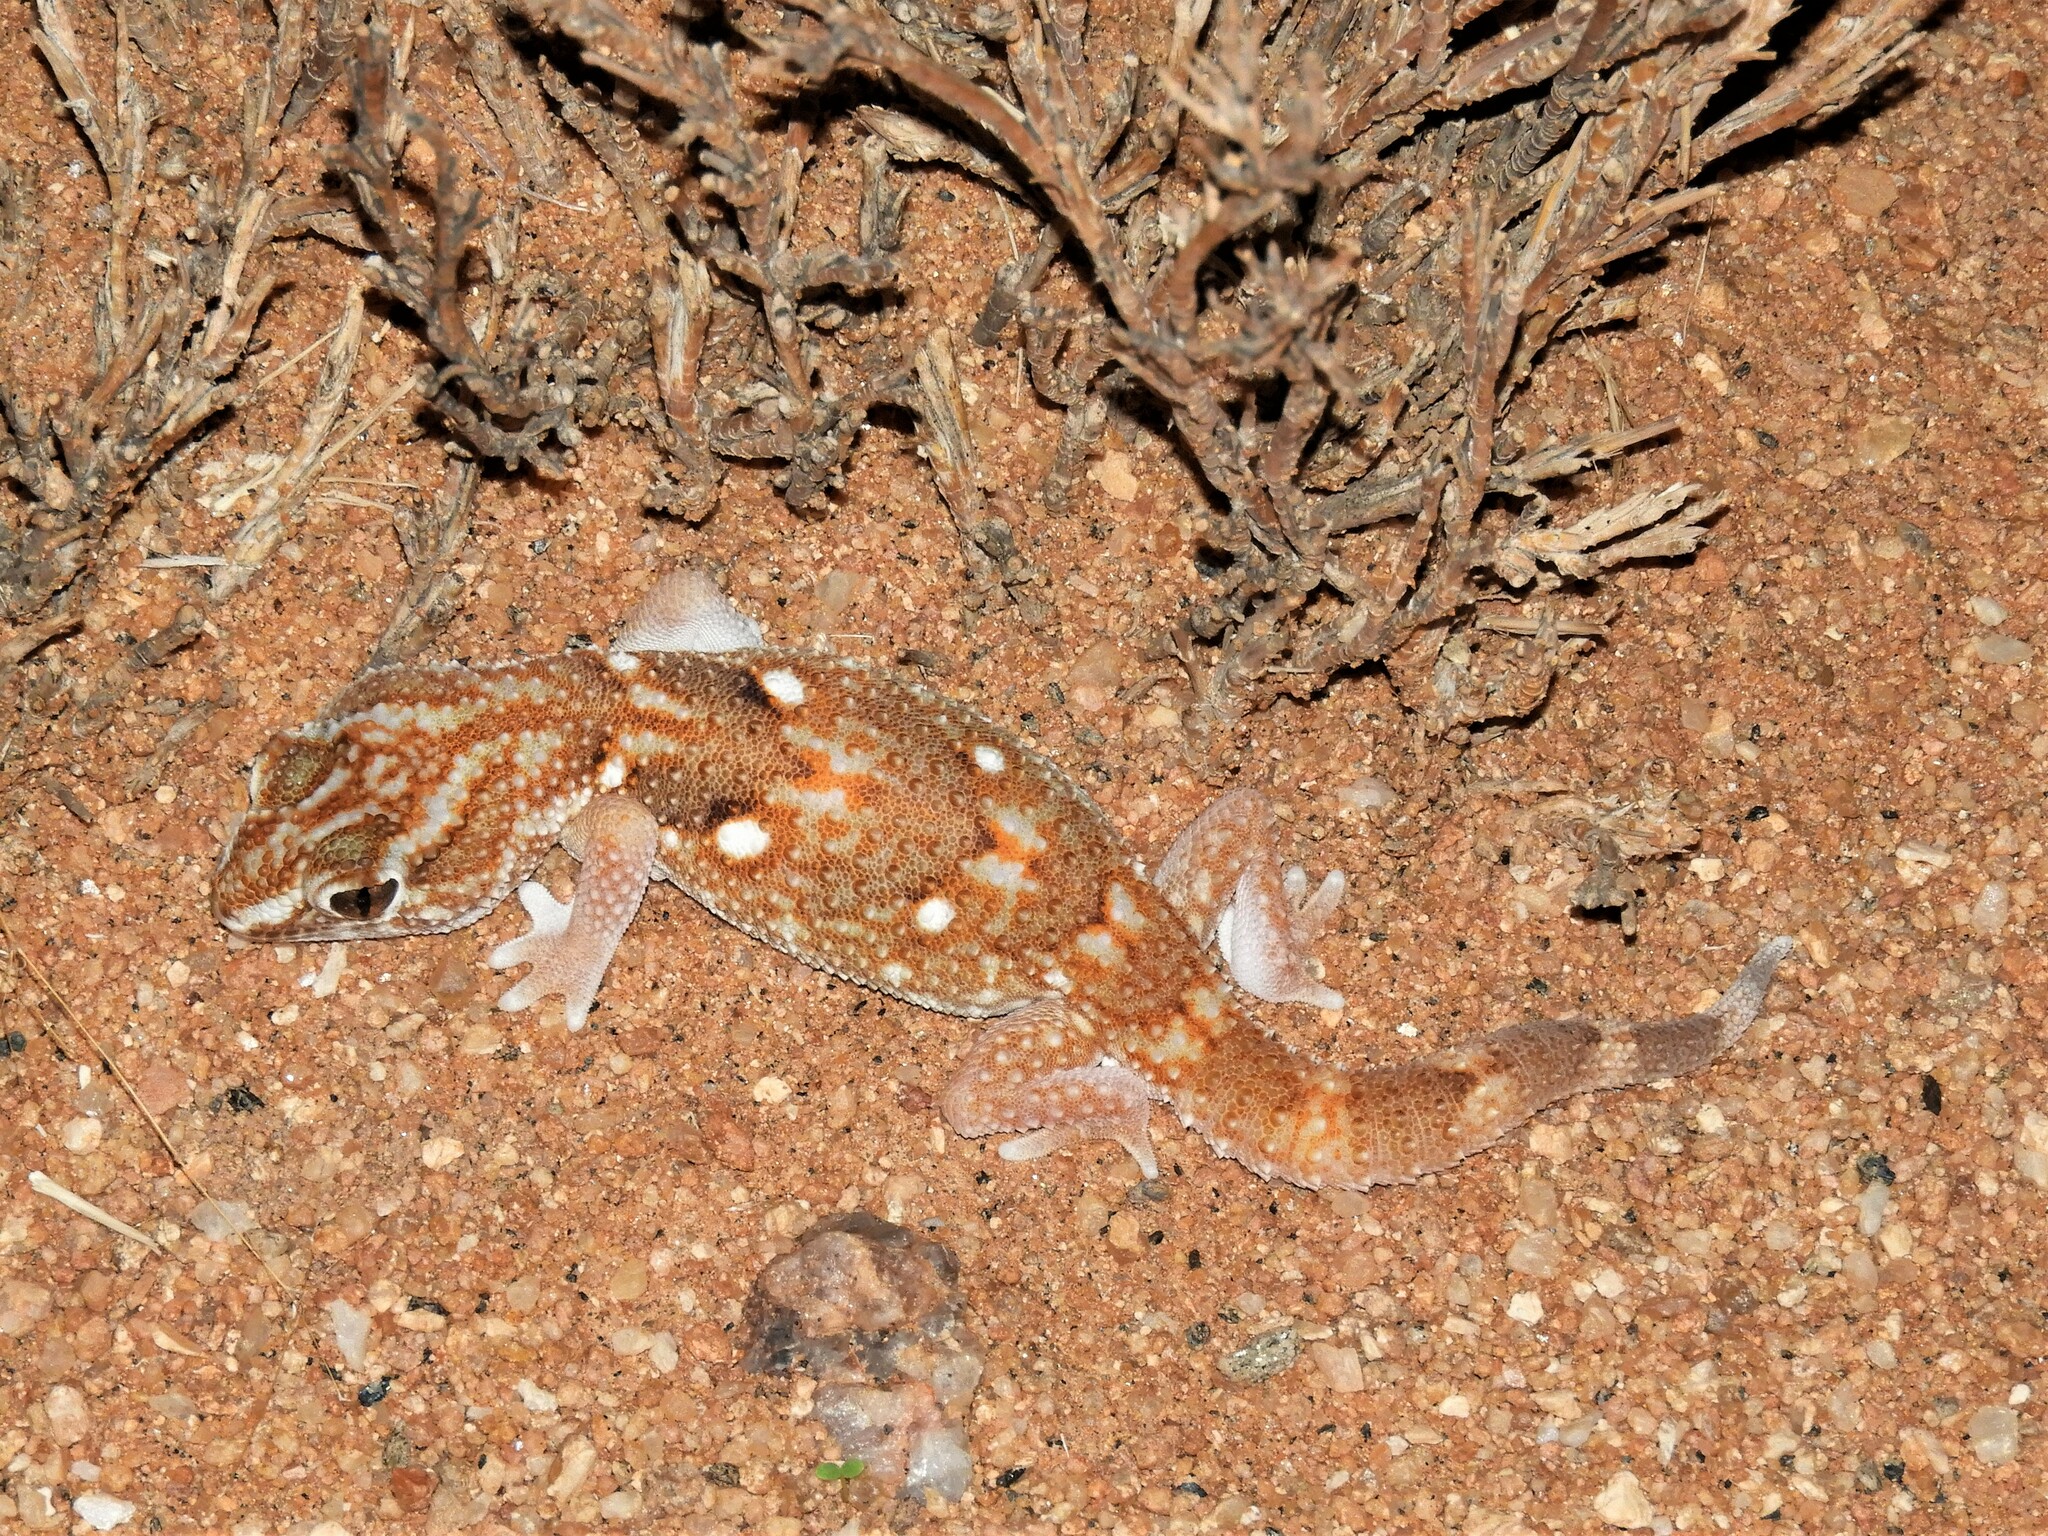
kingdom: Animalia
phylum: Chordata
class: Squamata
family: Gekkonidae
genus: Chondrodactylus
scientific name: Chondrodactylus angulifer
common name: Common giant ground gecko
